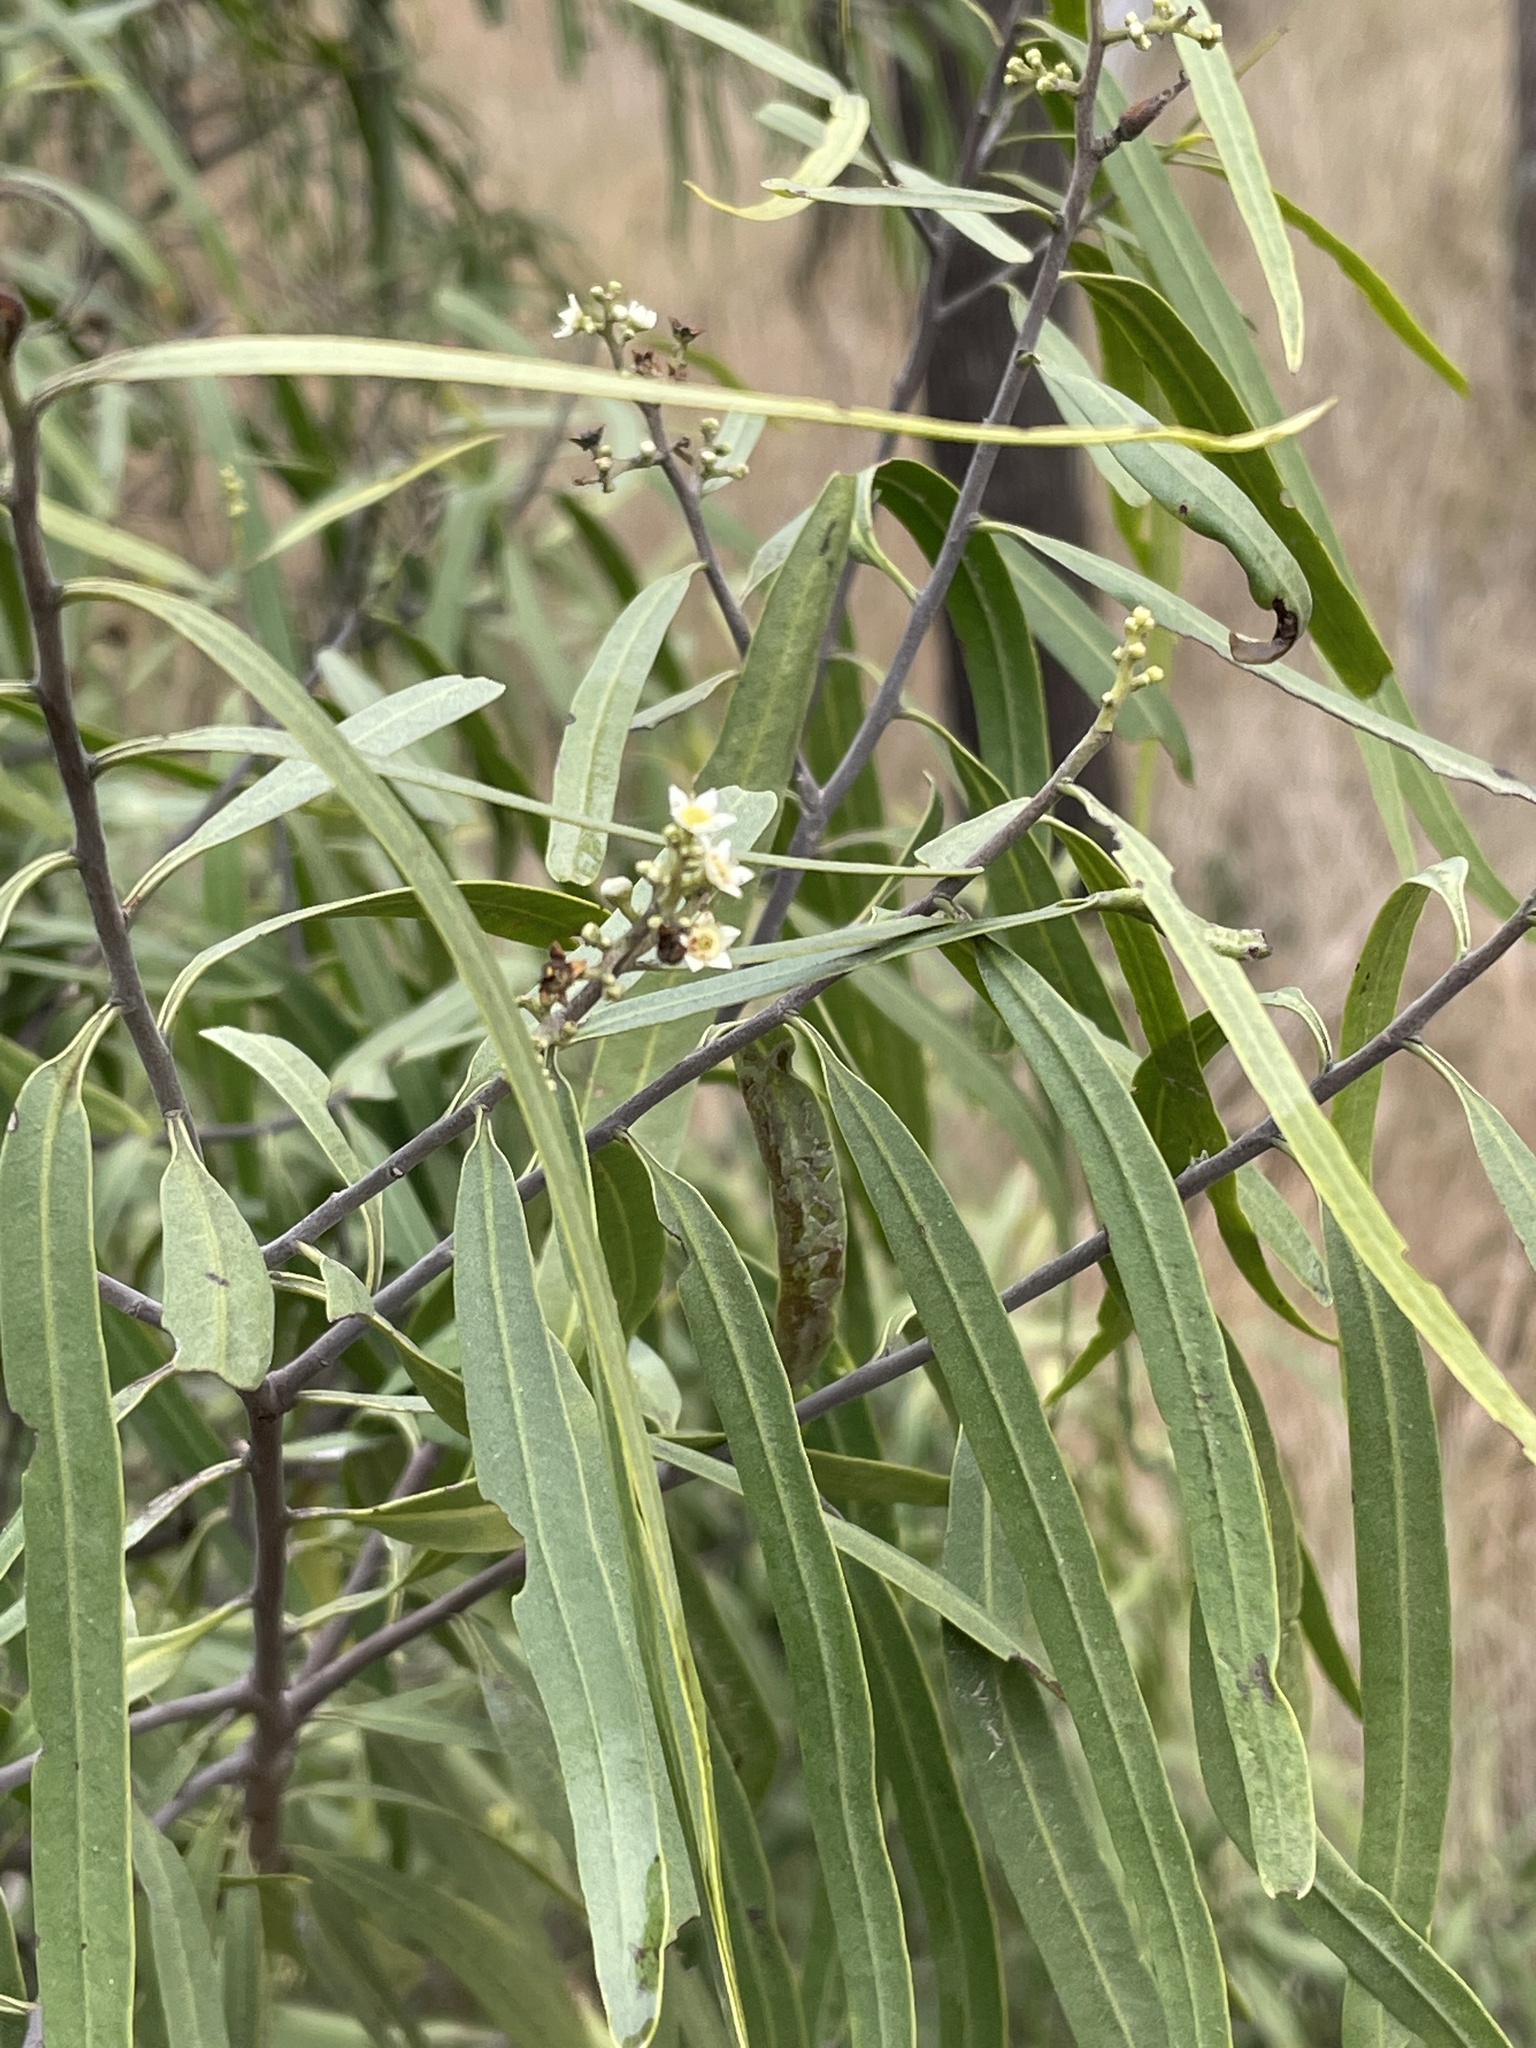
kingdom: Plantae
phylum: Tracheophyta
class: Magnoliopsida
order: Sapindales
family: Rutaceae
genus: Geijera
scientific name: Geijera parviflora
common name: Wilga
